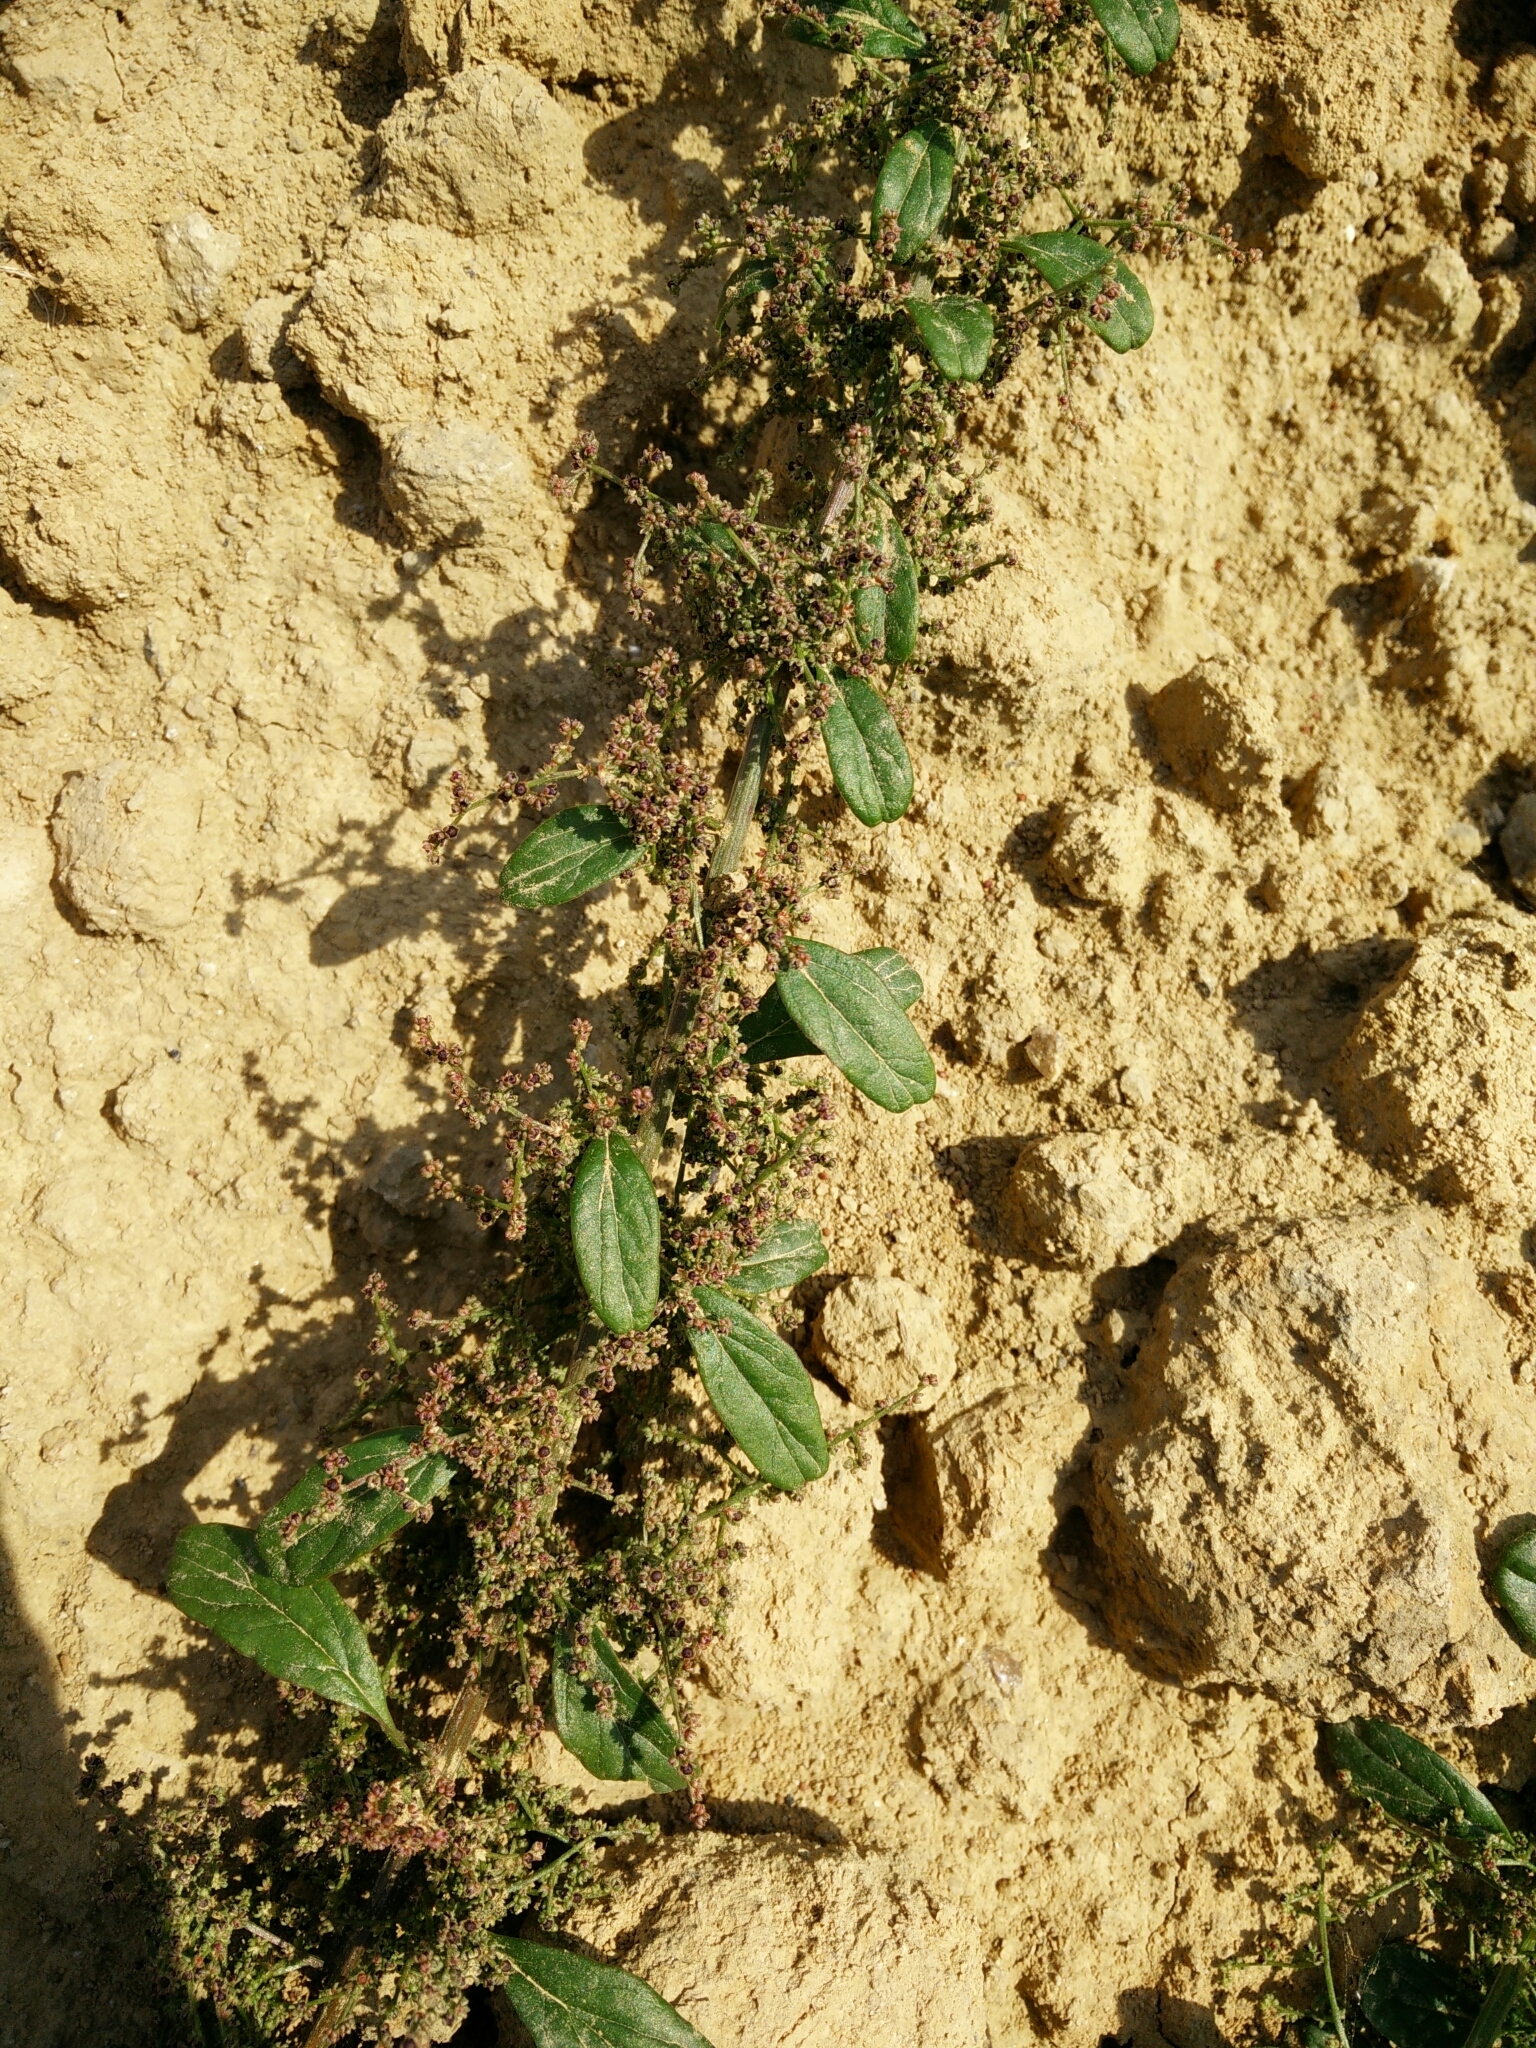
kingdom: Plantae
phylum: Tracheophyta
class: Magnoliopsida
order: Caryophyllales
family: Amaranthaceae
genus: Lipandra
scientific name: Lipandra polysperma
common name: Many-seed goosefoot
